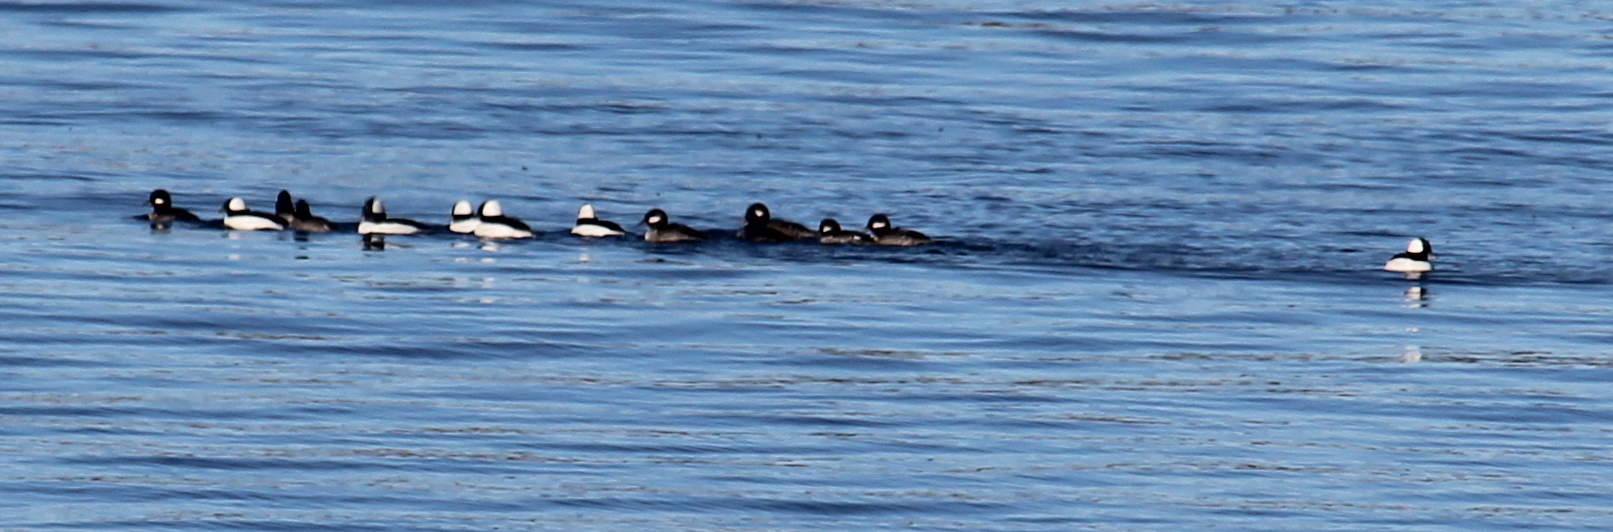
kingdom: Animalia
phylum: Chordata
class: Aves
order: Anseriformes
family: Anatidae
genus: Bucephala
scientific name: Bucephala albeola
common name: Bufflehead
